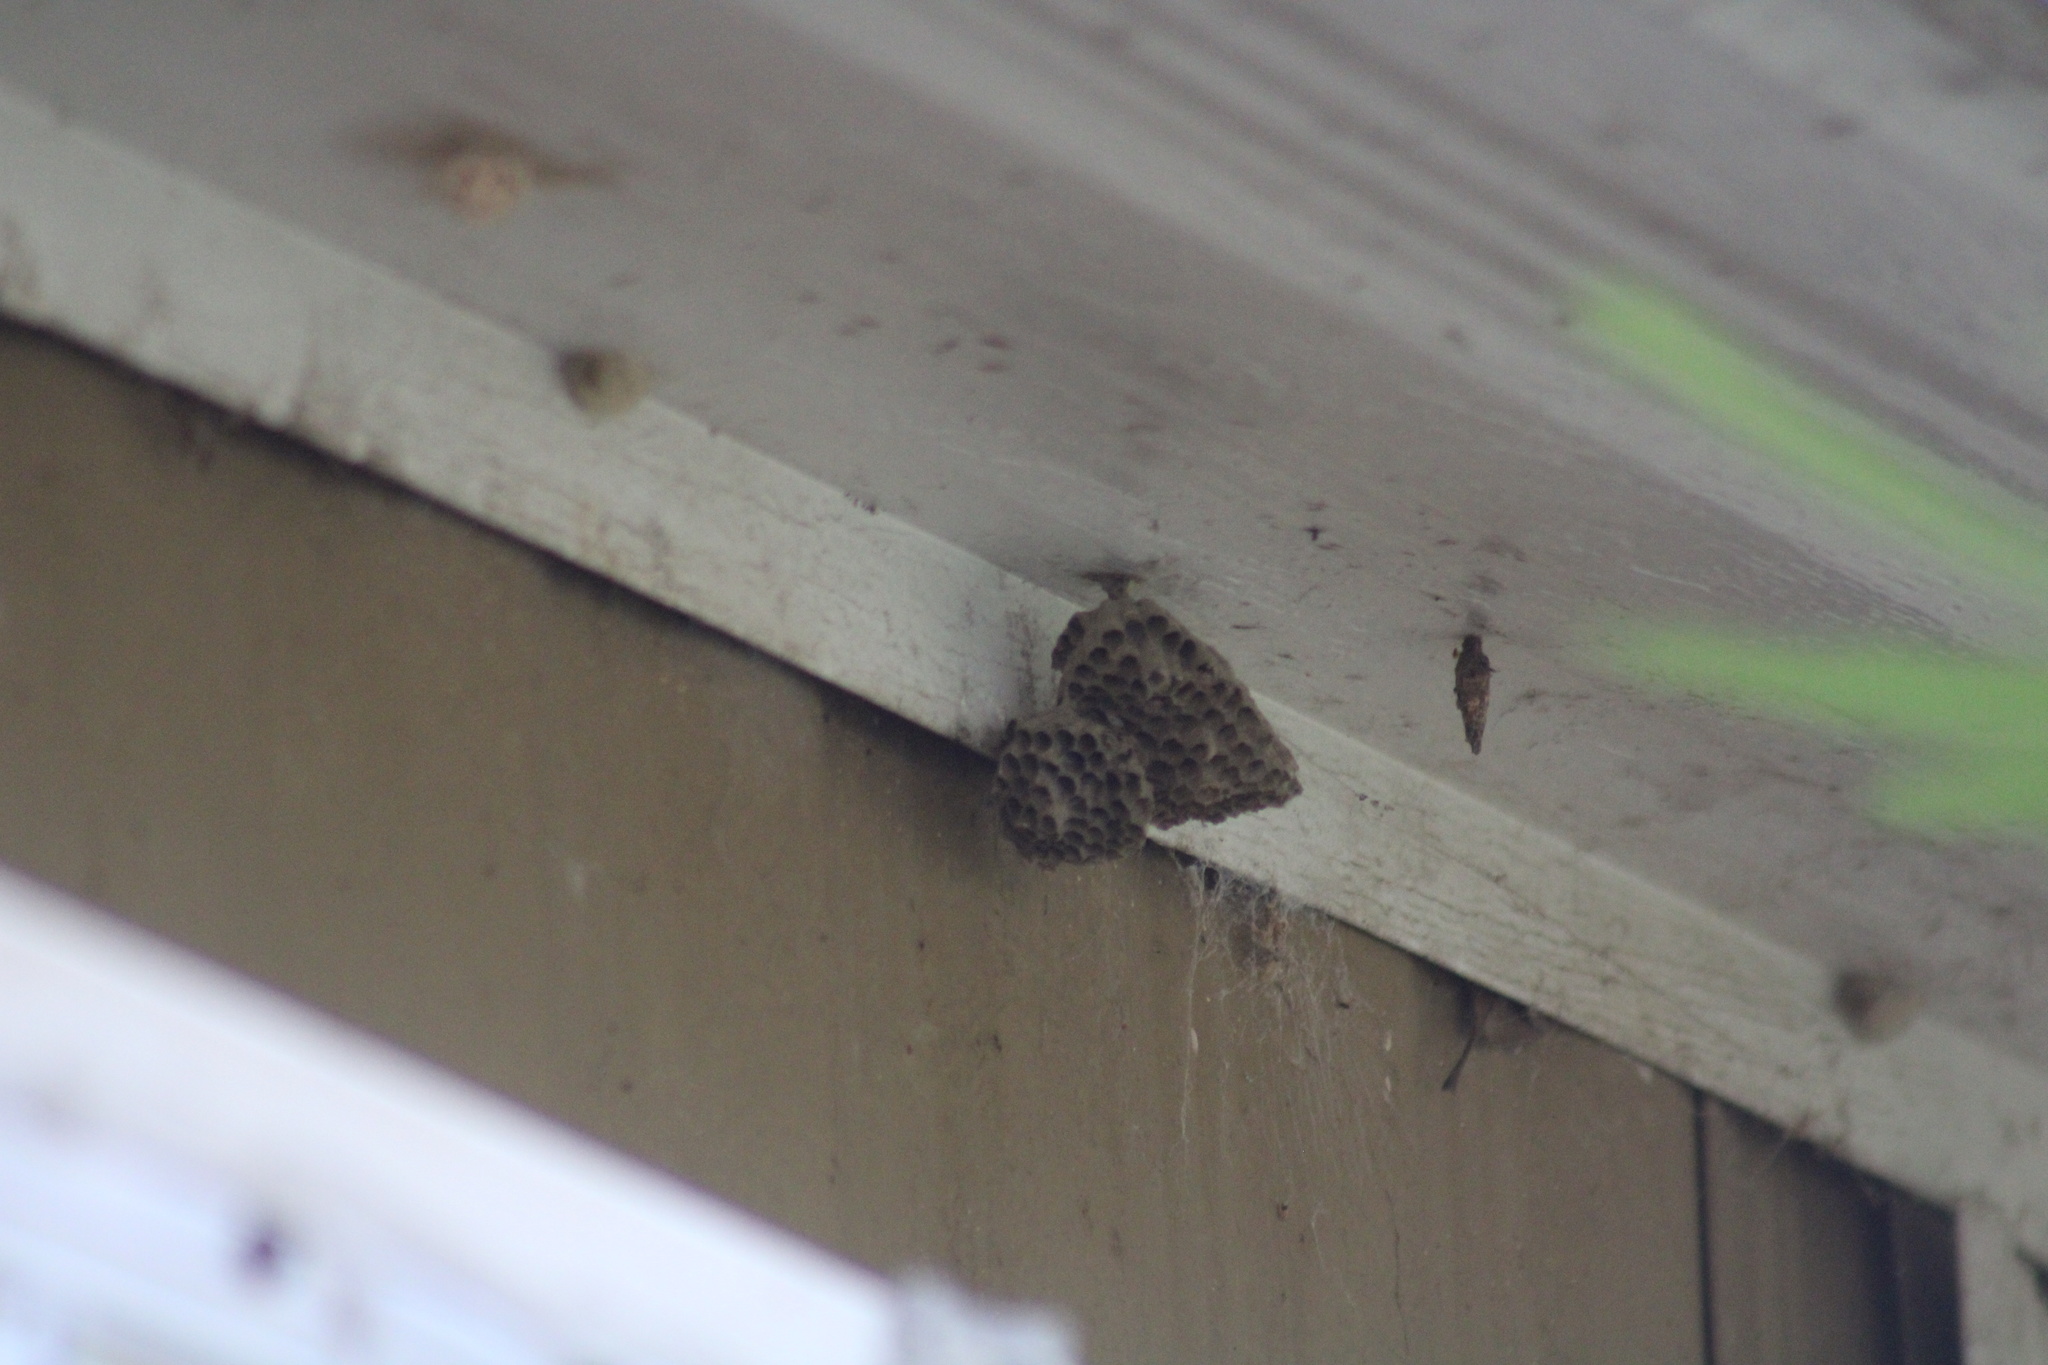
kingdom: Animalia
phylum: Arthropoda
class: Insecta
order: Hymenoptera
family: Vespidae
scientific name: Vespidae
